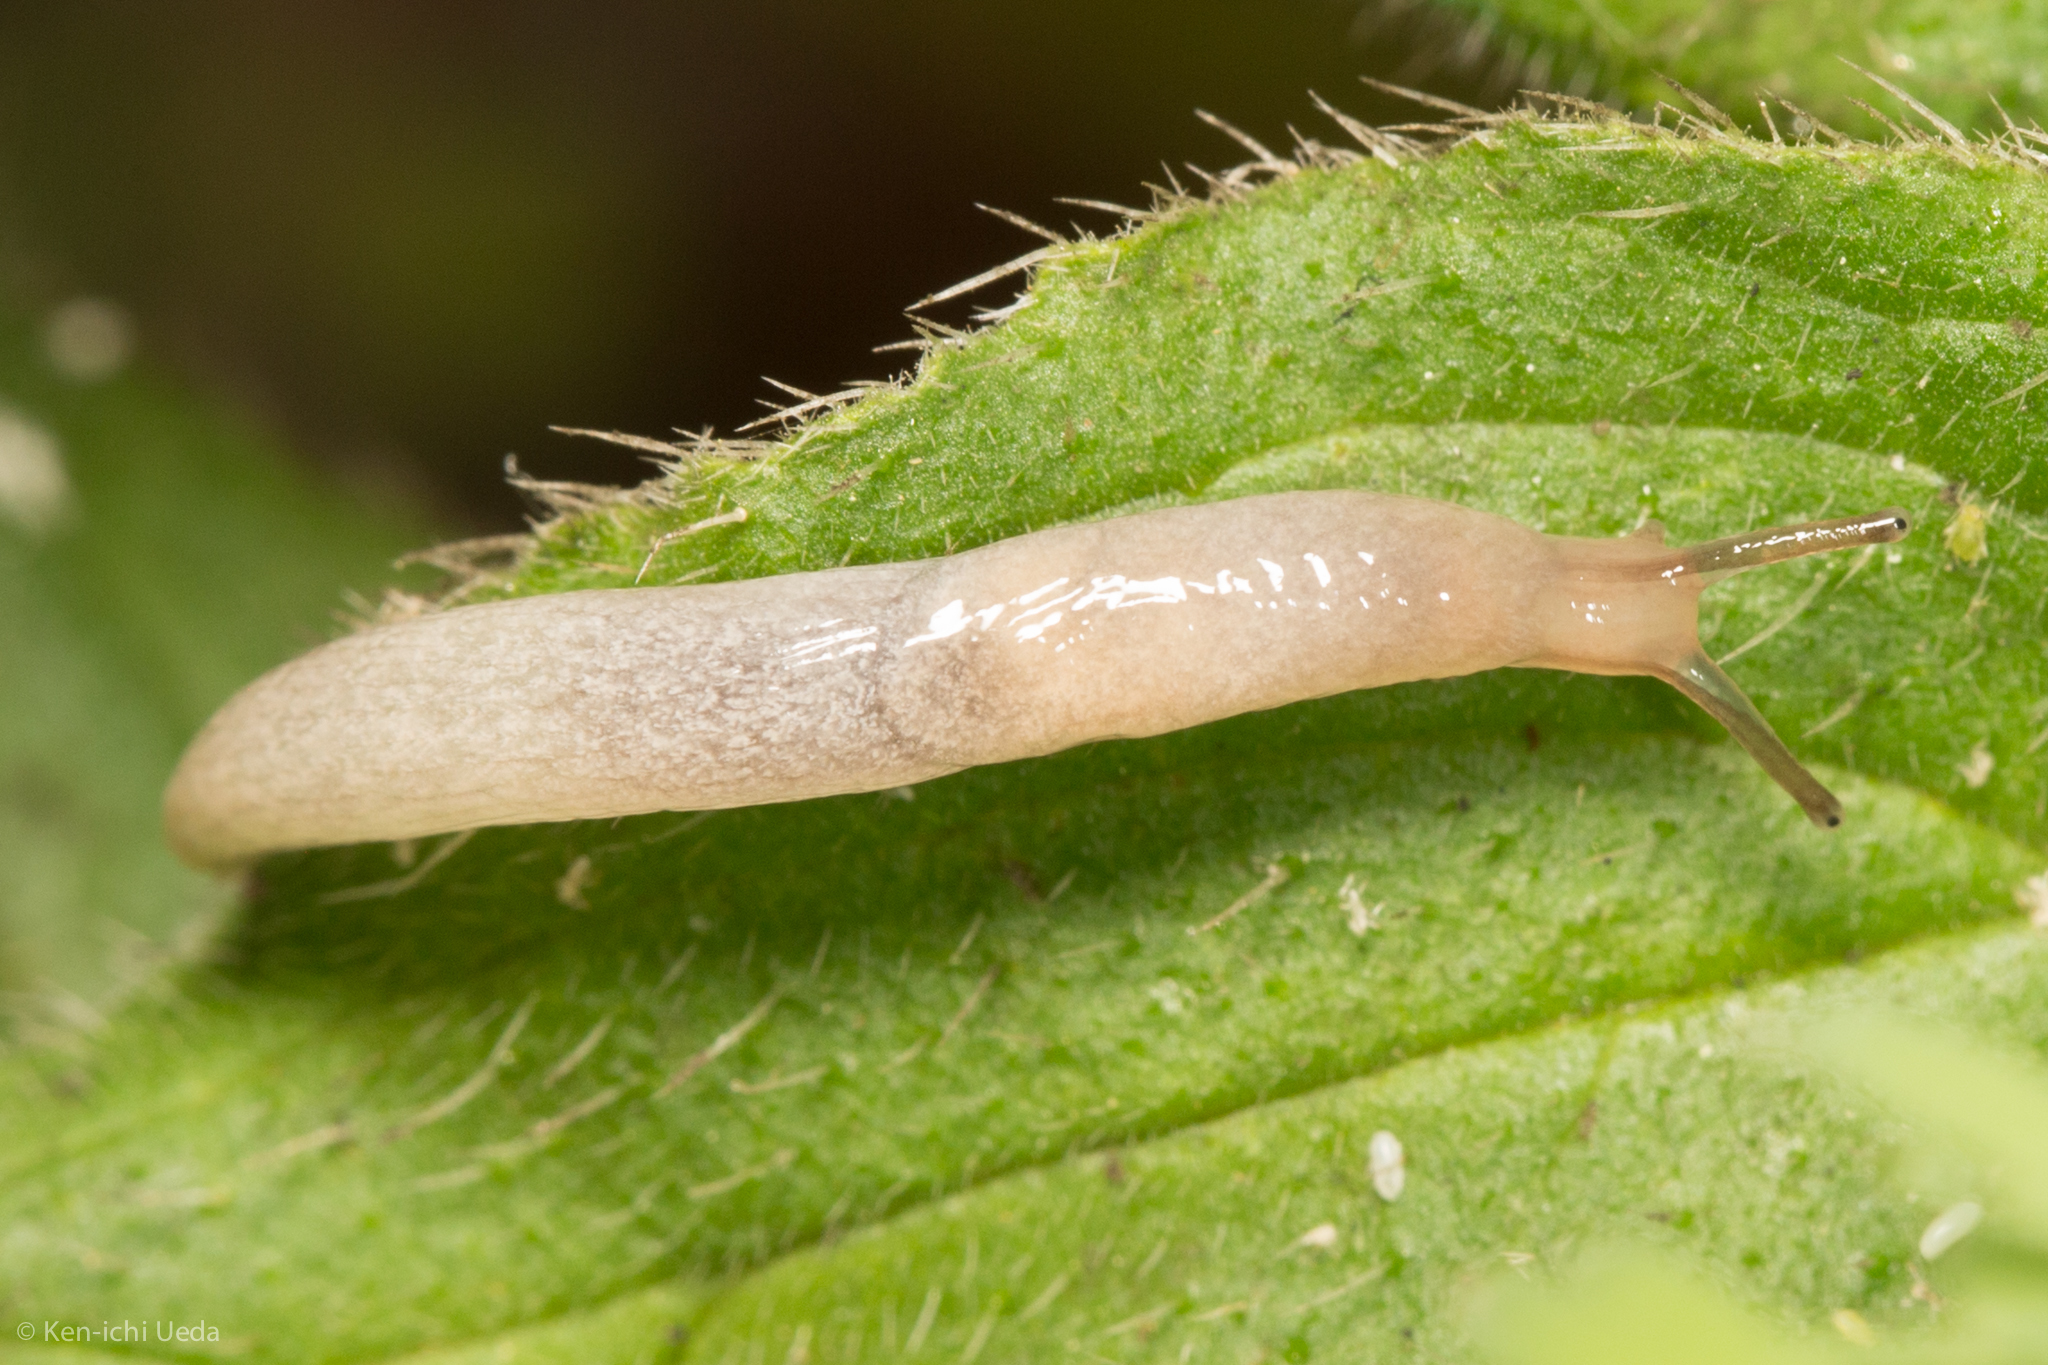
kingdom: Animalia
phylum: Mollusca
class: Gastropoda
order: Stylommatophora
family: Agriolimacidae
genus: Deroceras
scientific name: Deroceras reticulatum
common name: Gray field slug
